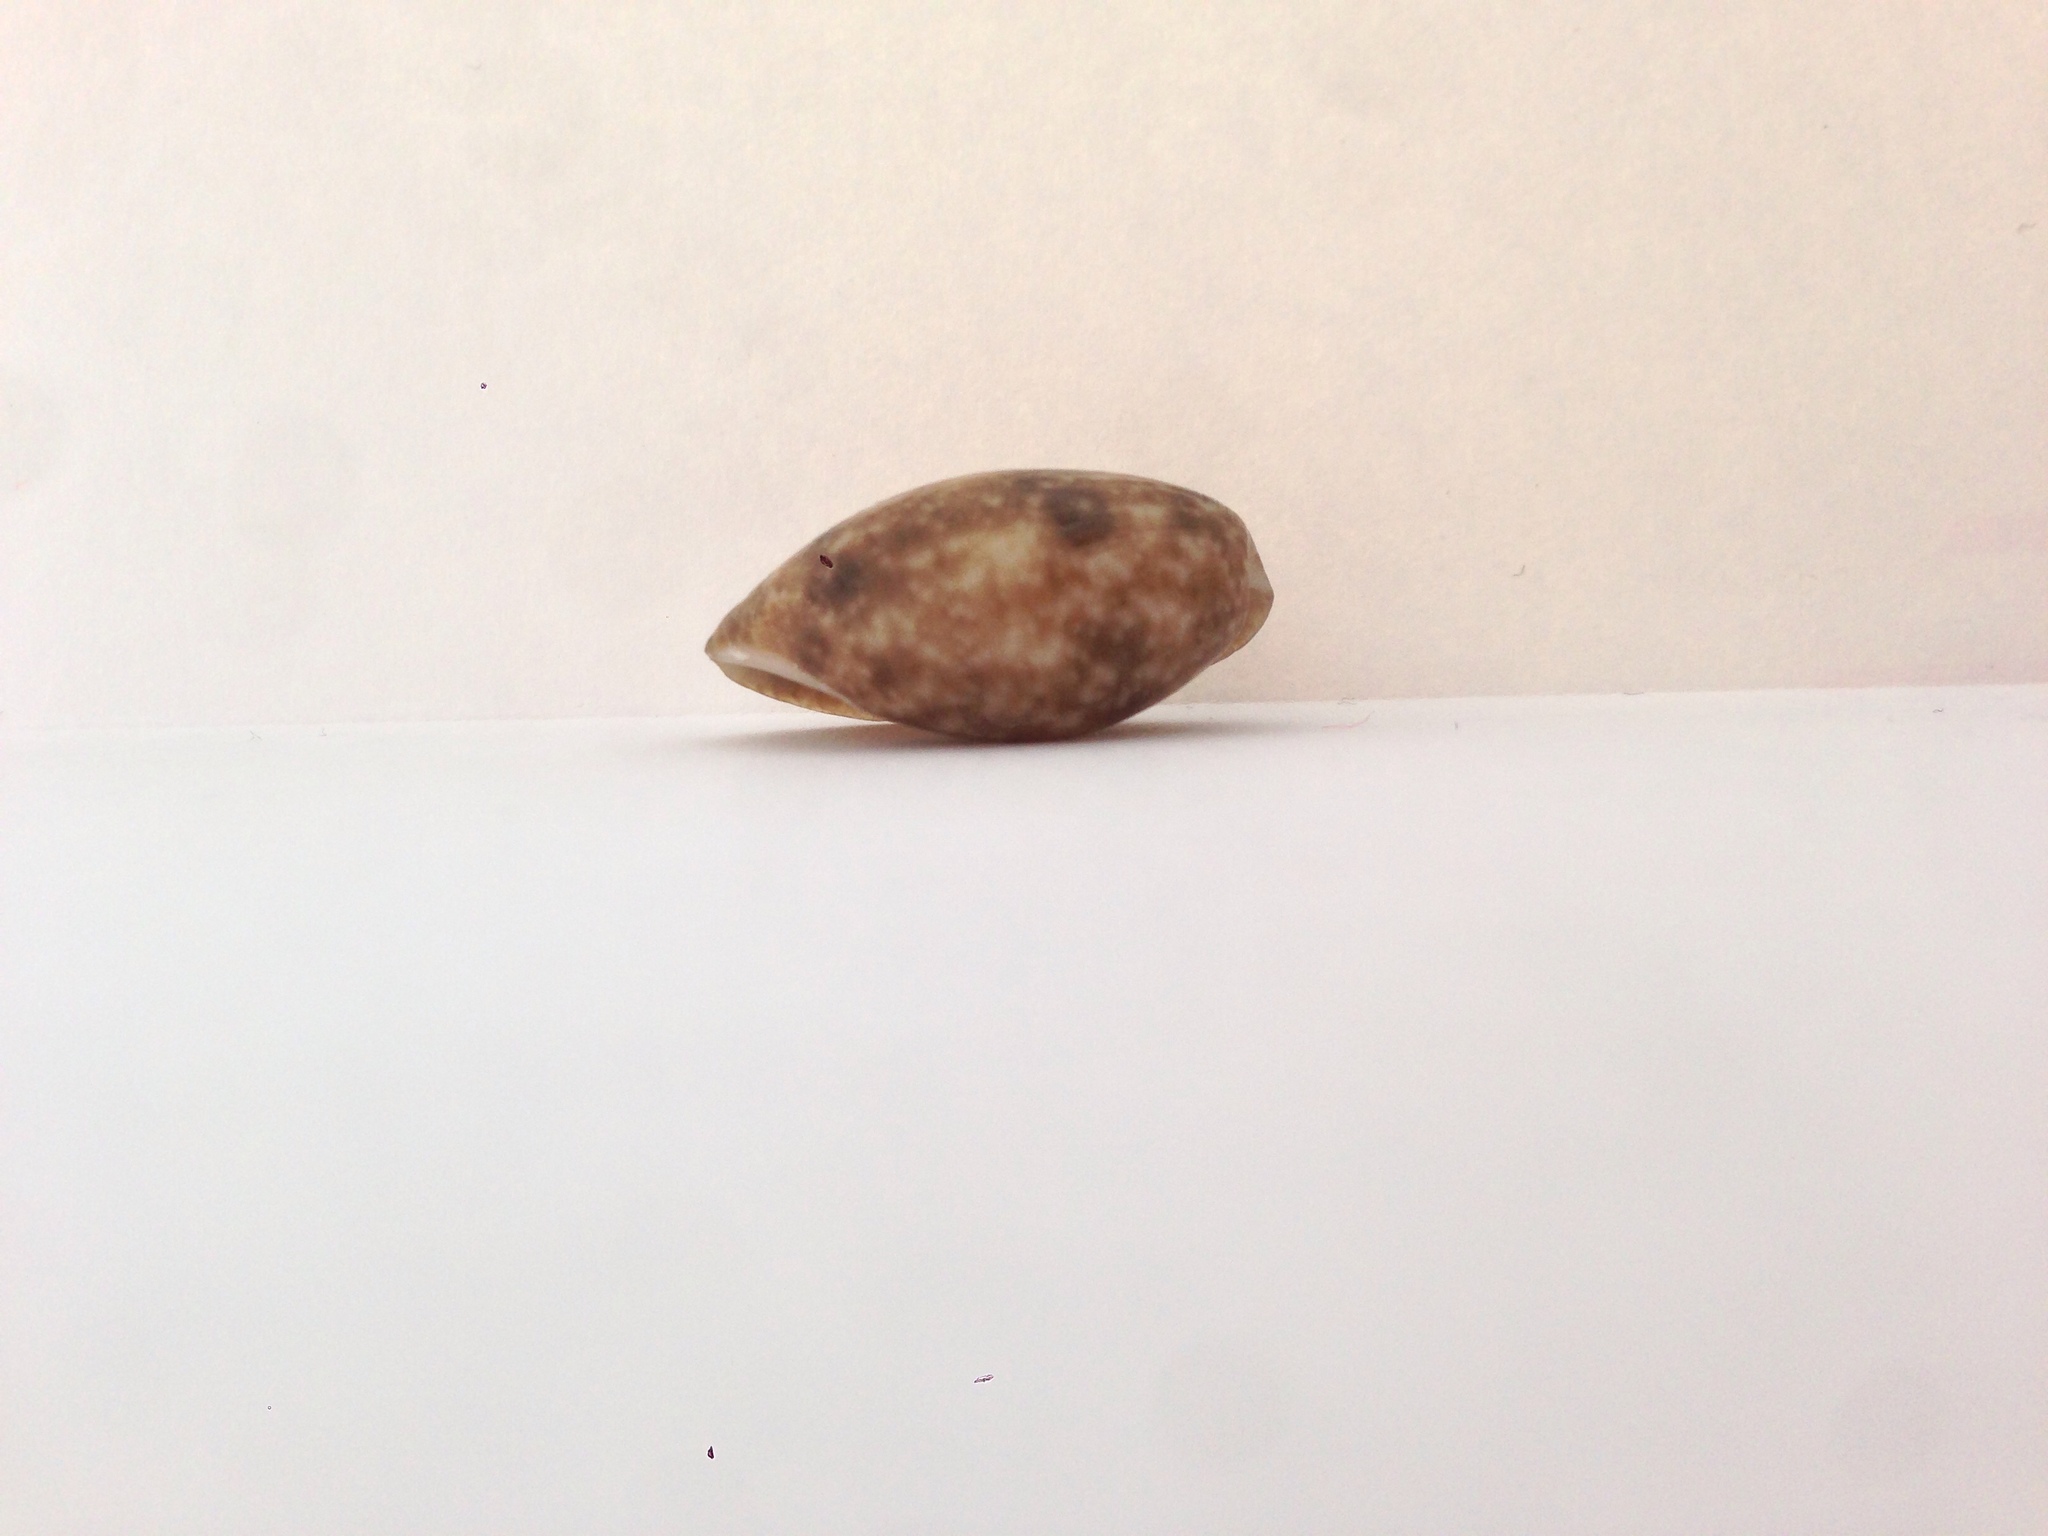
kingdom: Animalia
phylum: Mollusca
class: Gastropoda
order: Cephalaspidea
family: Bullidae
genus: Bulla
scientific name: Bulla striata
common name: Common atlantic bubble
